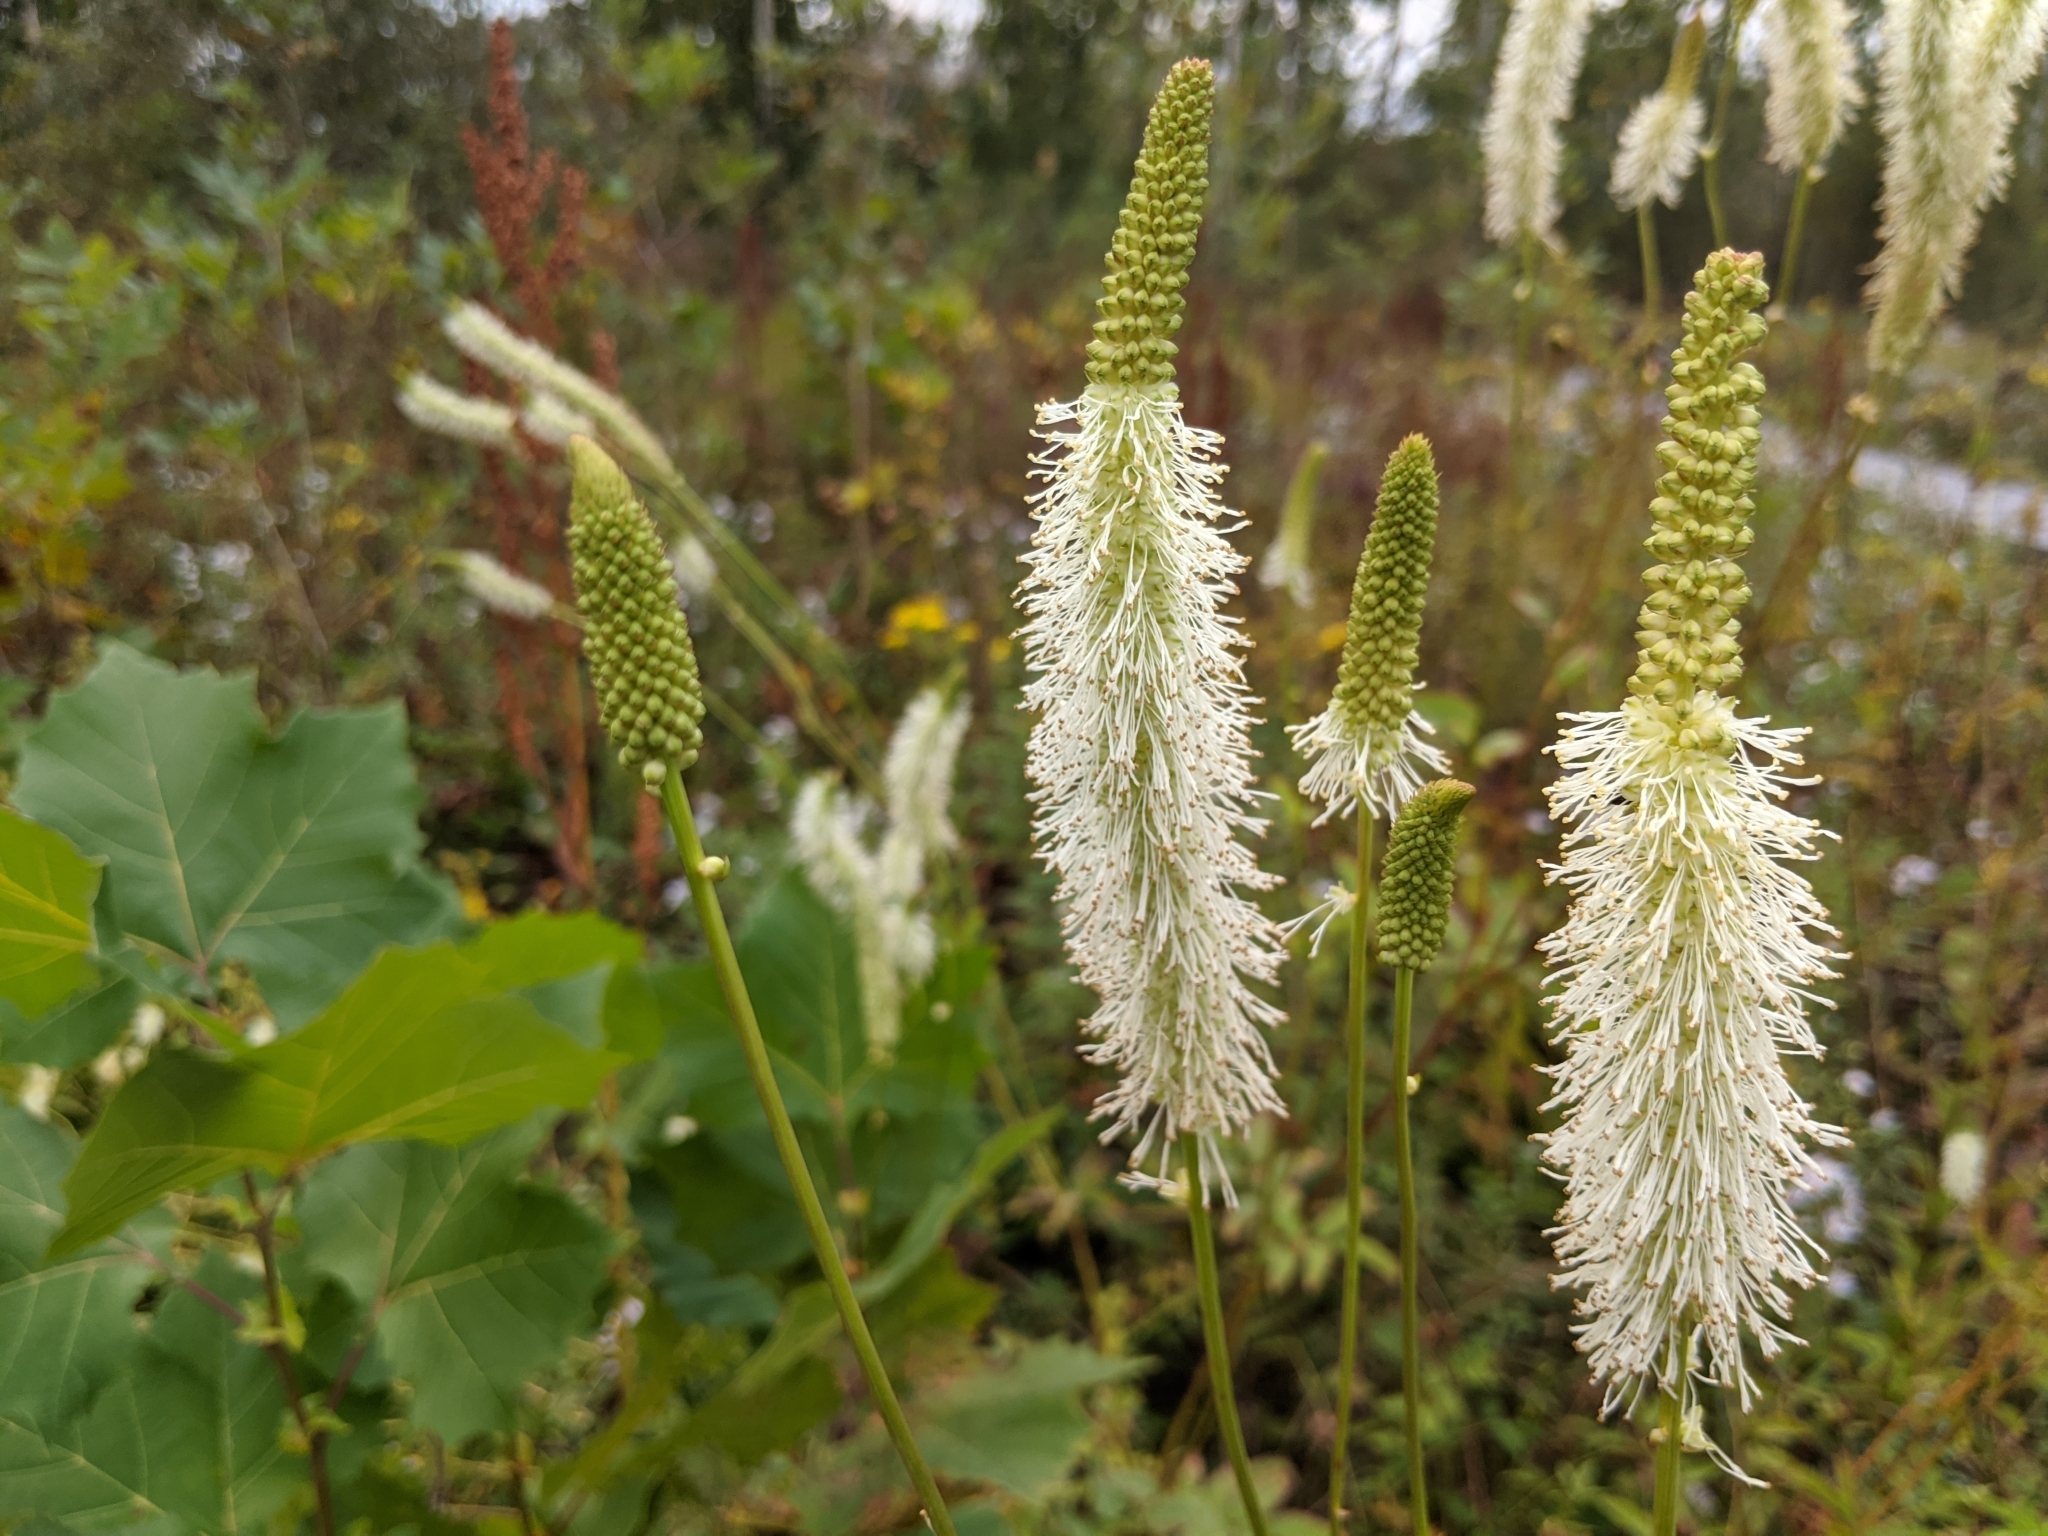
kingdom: Plantae
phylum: Tracheophyta
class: Magnoliopsida
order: Rosales
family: Rosaceae
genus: Sanguisorba
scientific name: Sanguisorba canadensis
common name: White burnet
